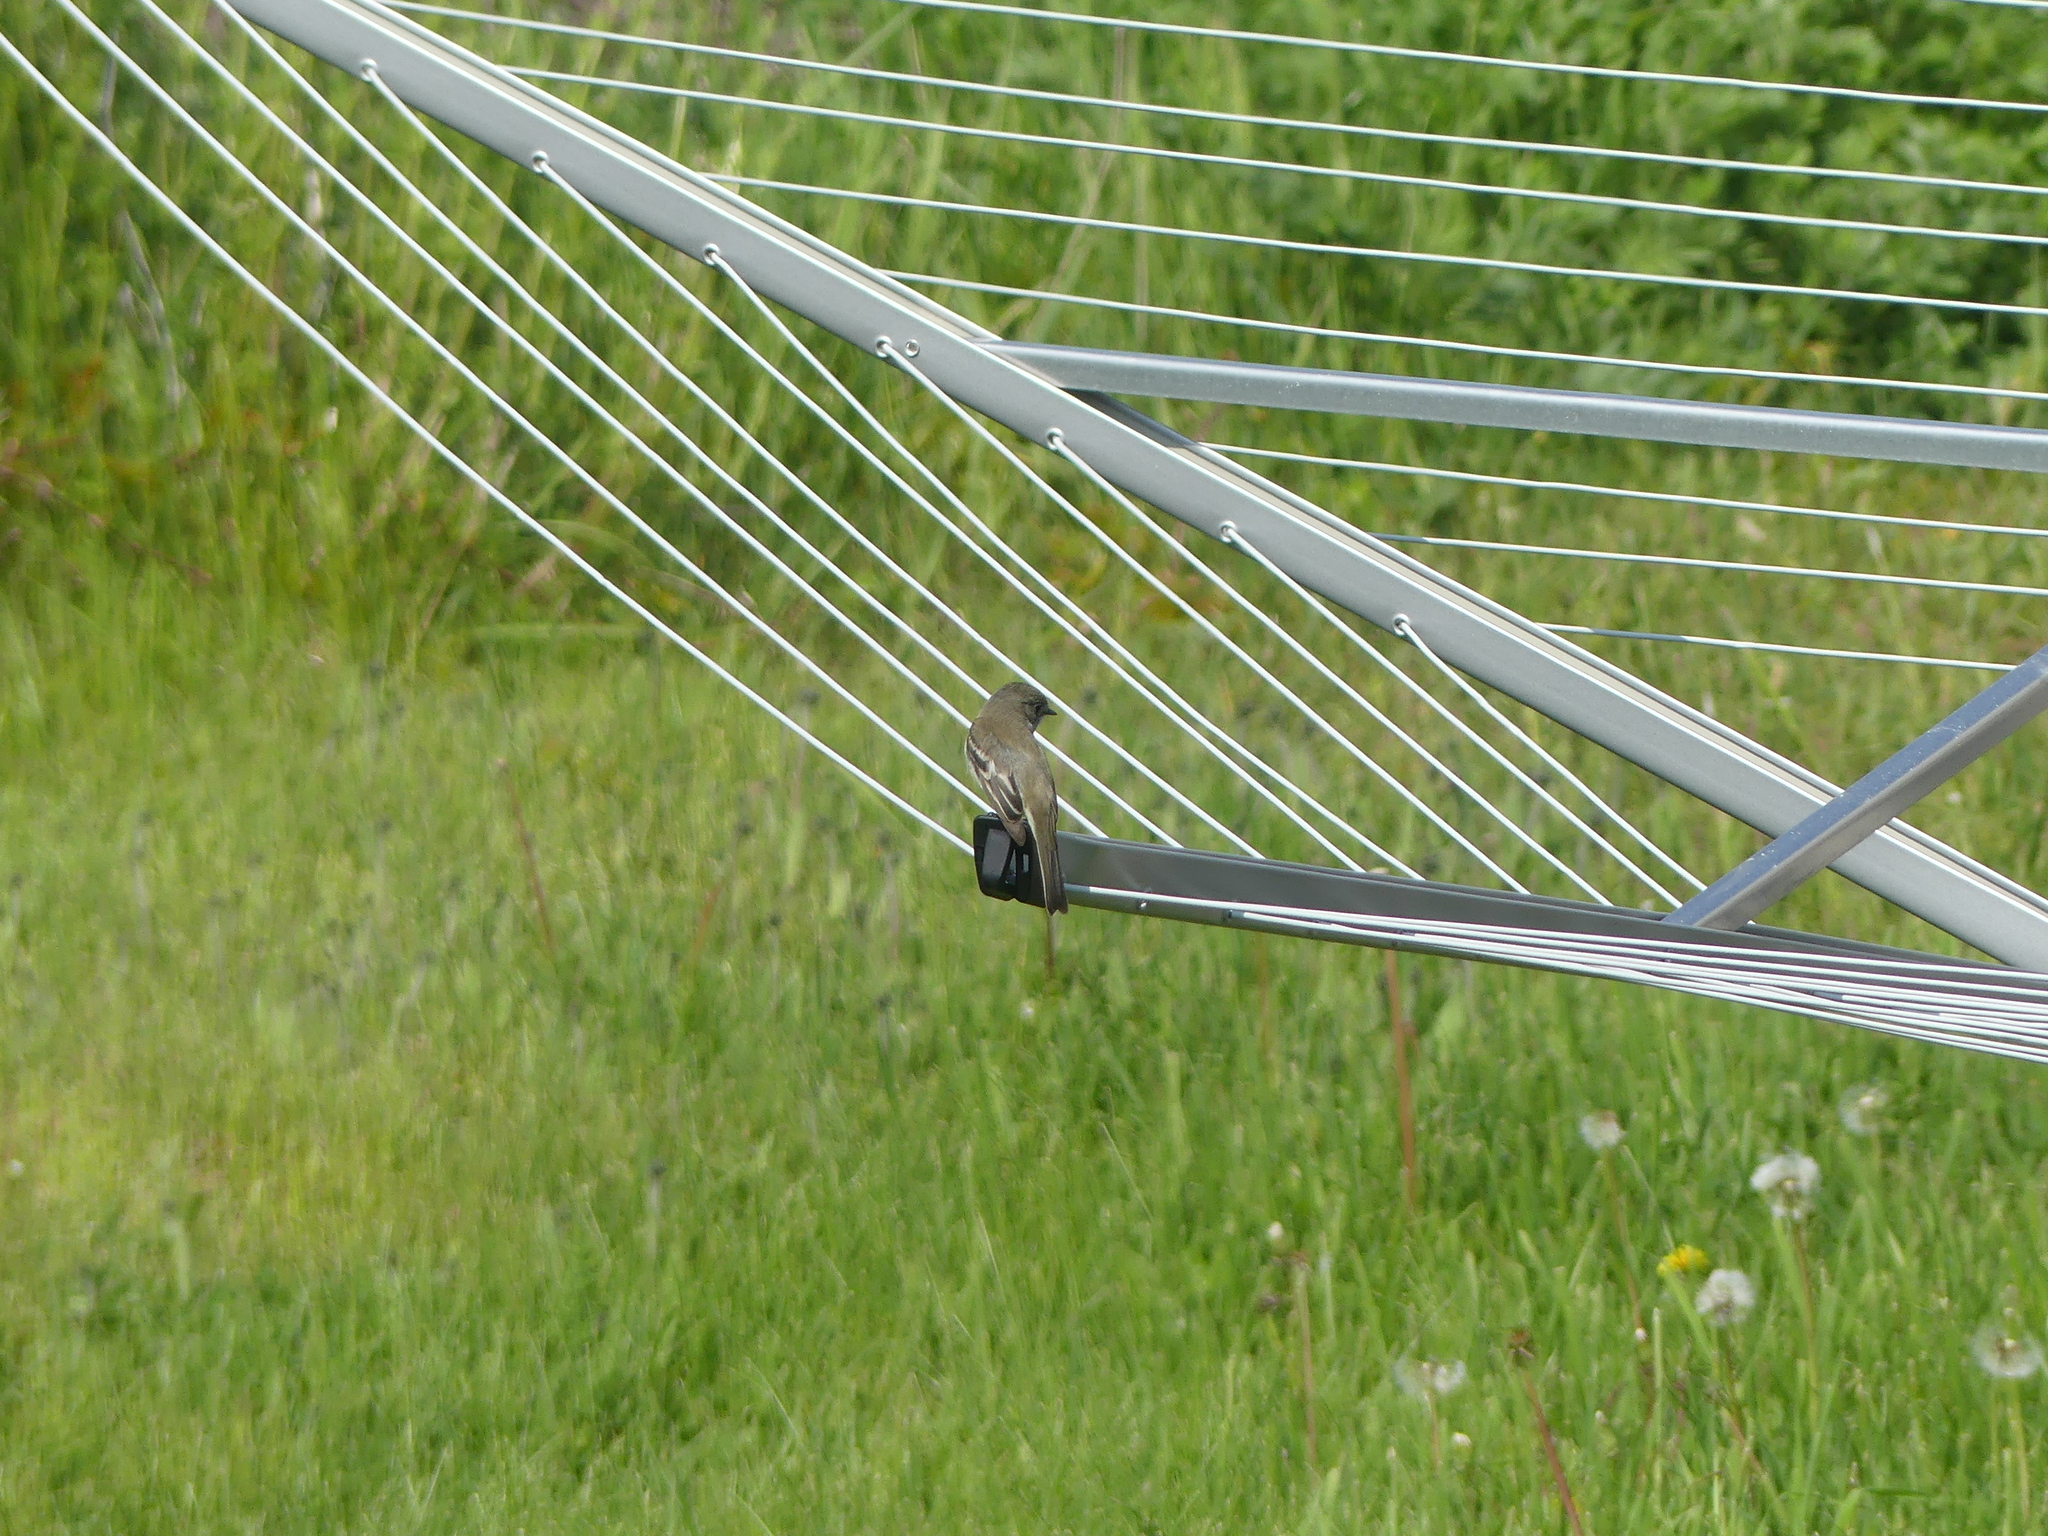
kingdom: Animalia
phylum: Chordata
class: Aves
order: Passeriformes
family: Tyrannidae
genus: Empidonax
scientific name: Empidonax
